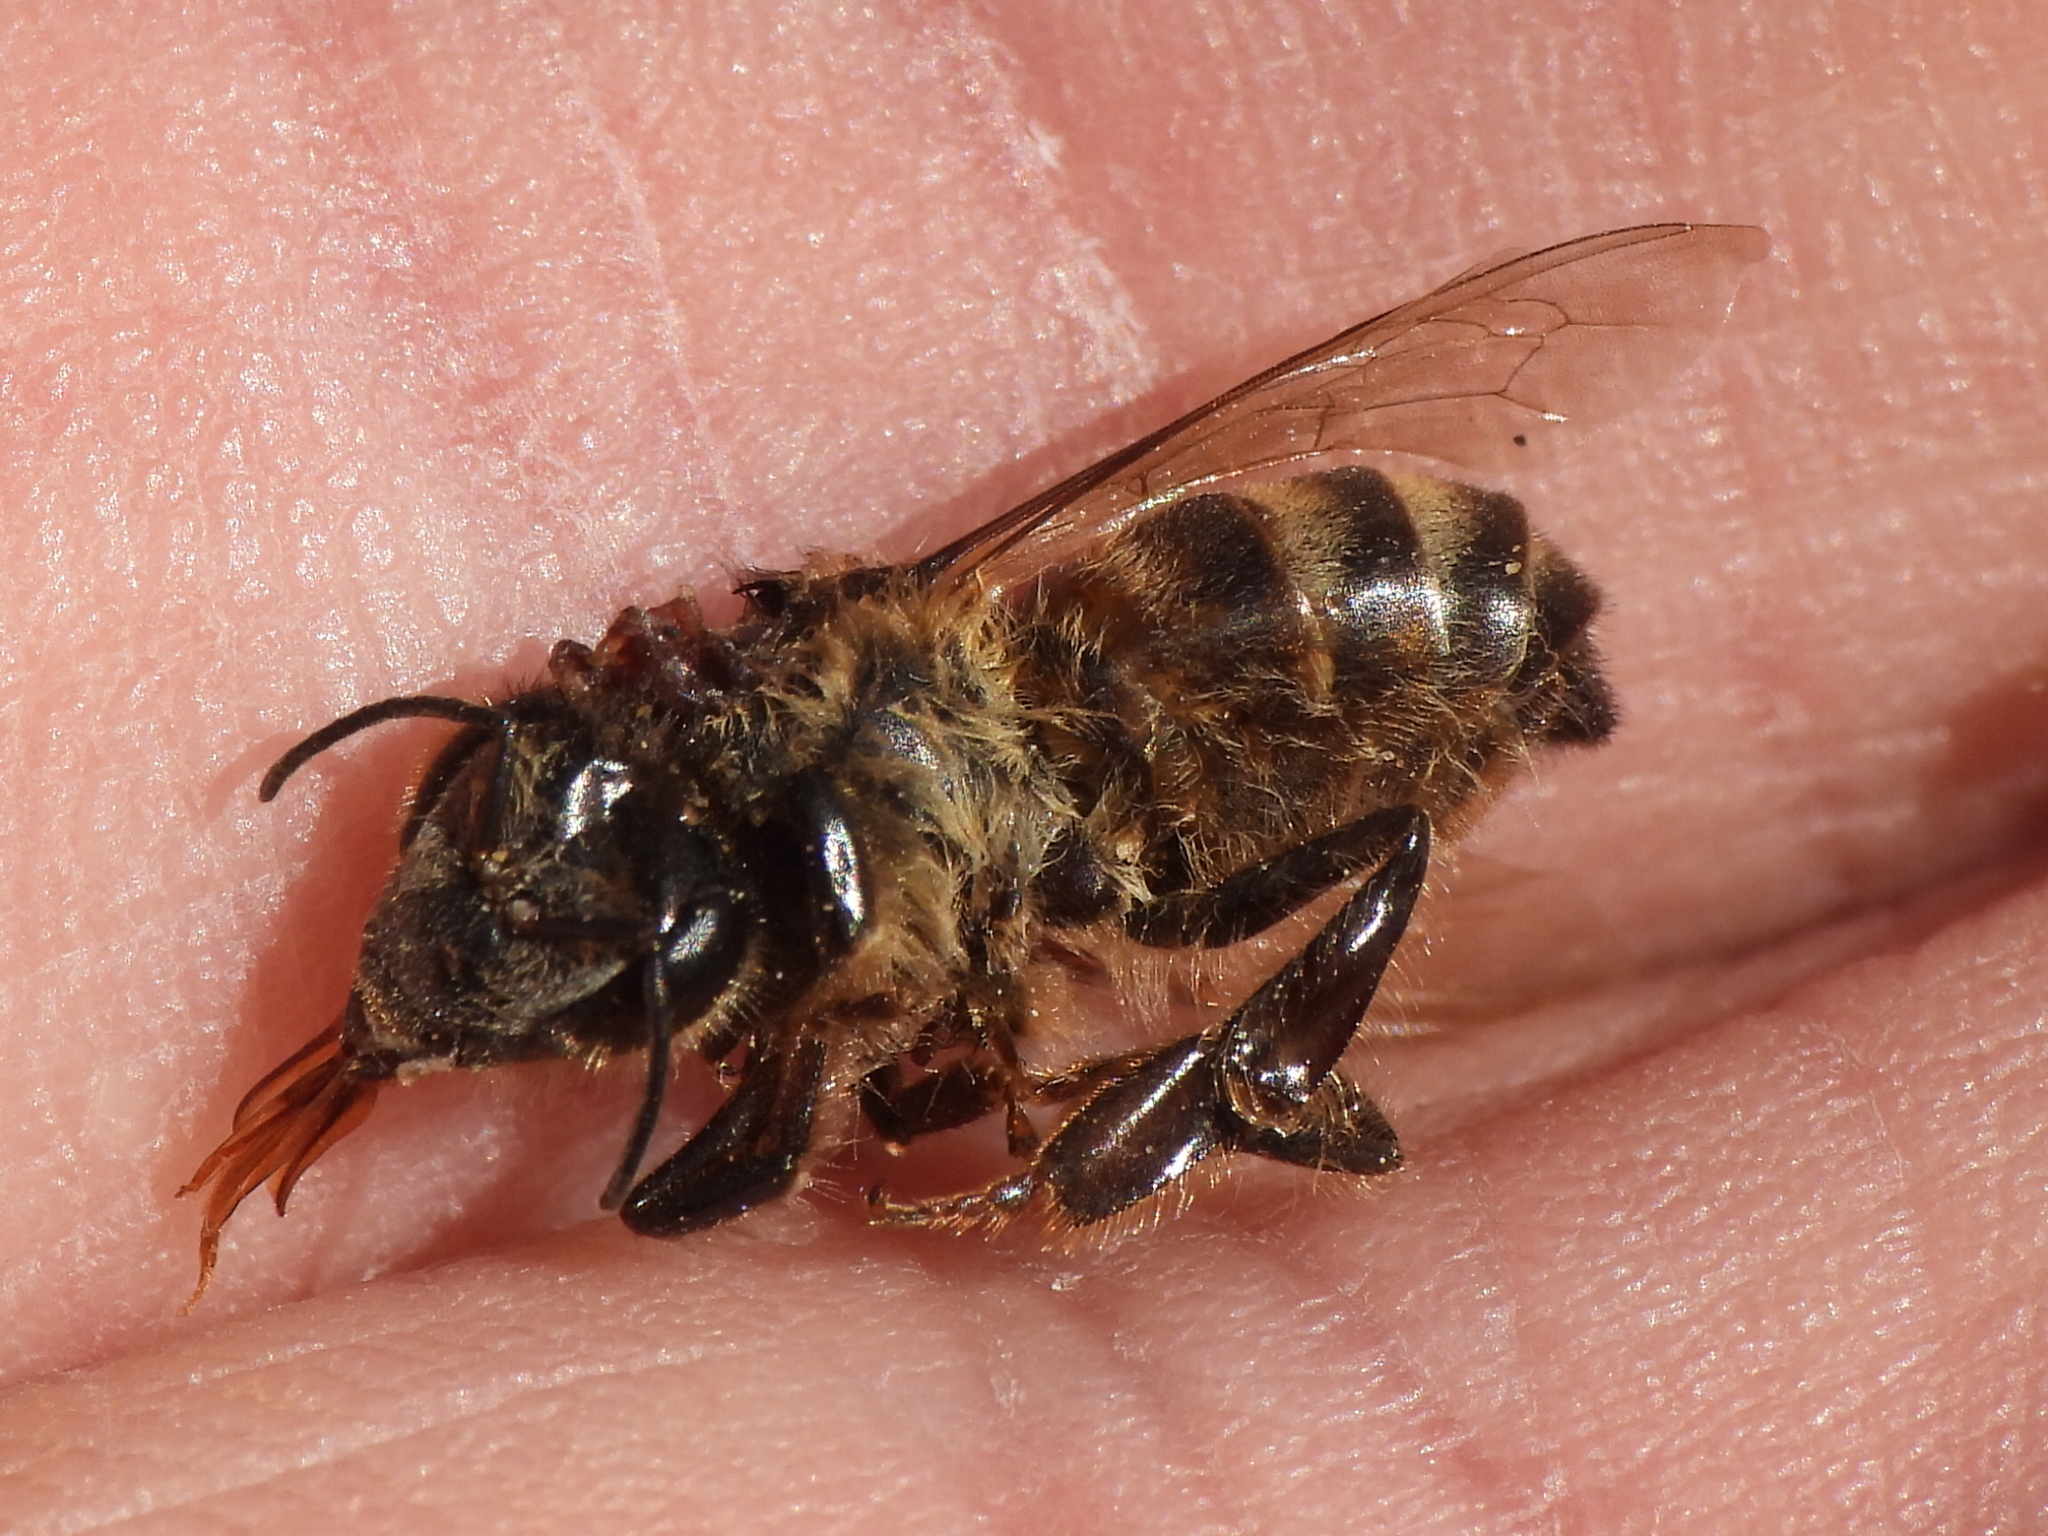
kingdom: Animalia
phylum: Arthropoda
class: Insecta
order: Hymenoptera
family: Apidae
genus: Apis
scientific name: Apis mellifera
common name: Honey bee
